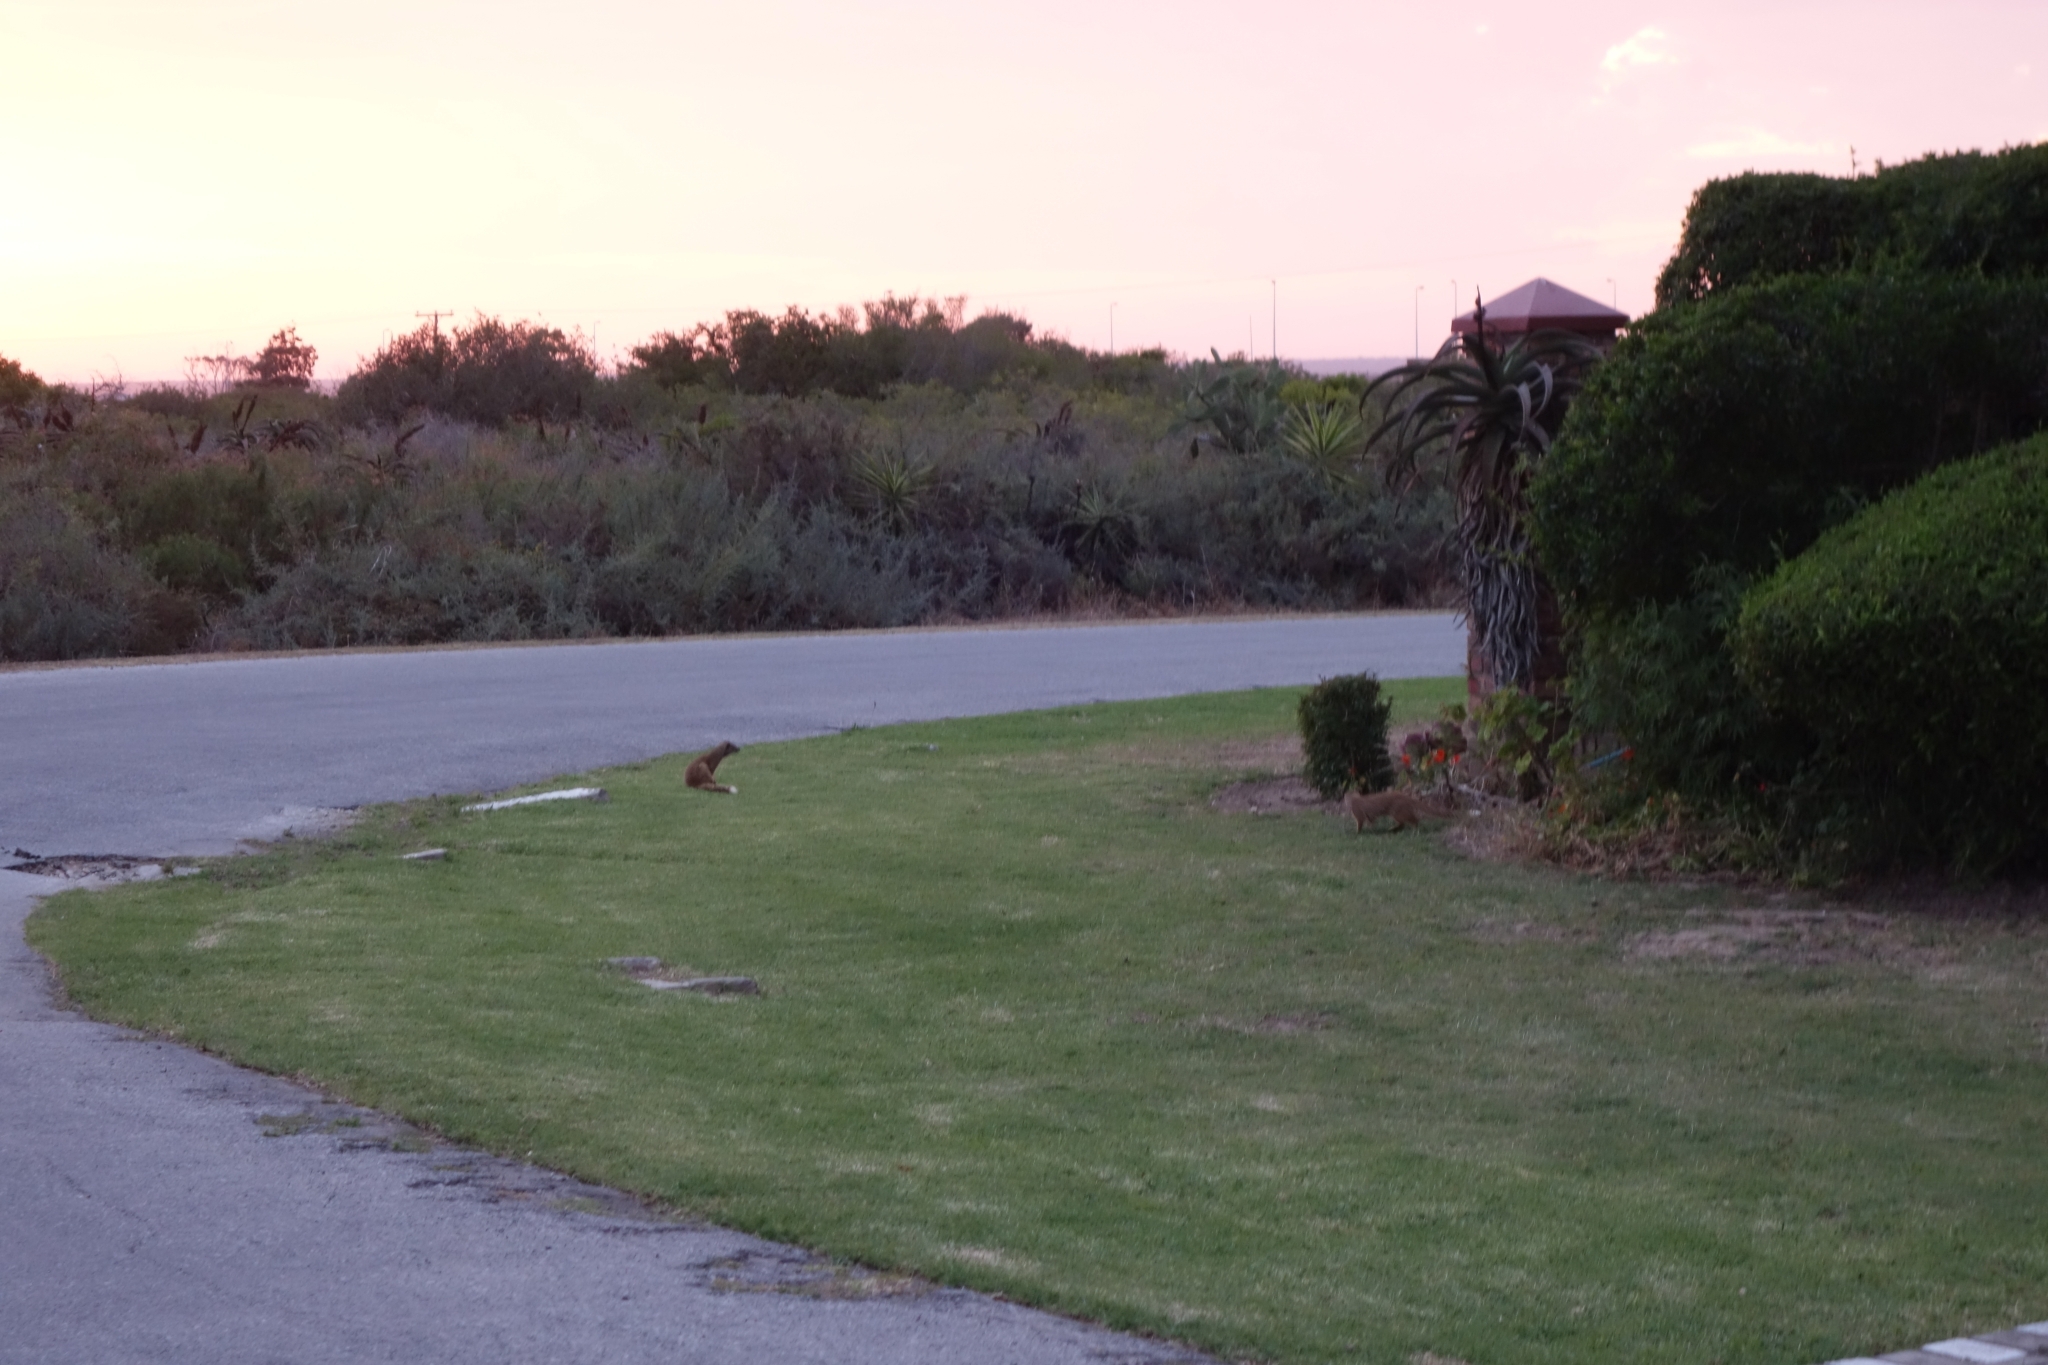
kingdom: Animalia
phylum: Chordata
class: Mammalia
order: Carnivora
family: Herpestidae
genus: Cynictis
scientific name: Cynictis penicillata
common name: Yellow mongoose
